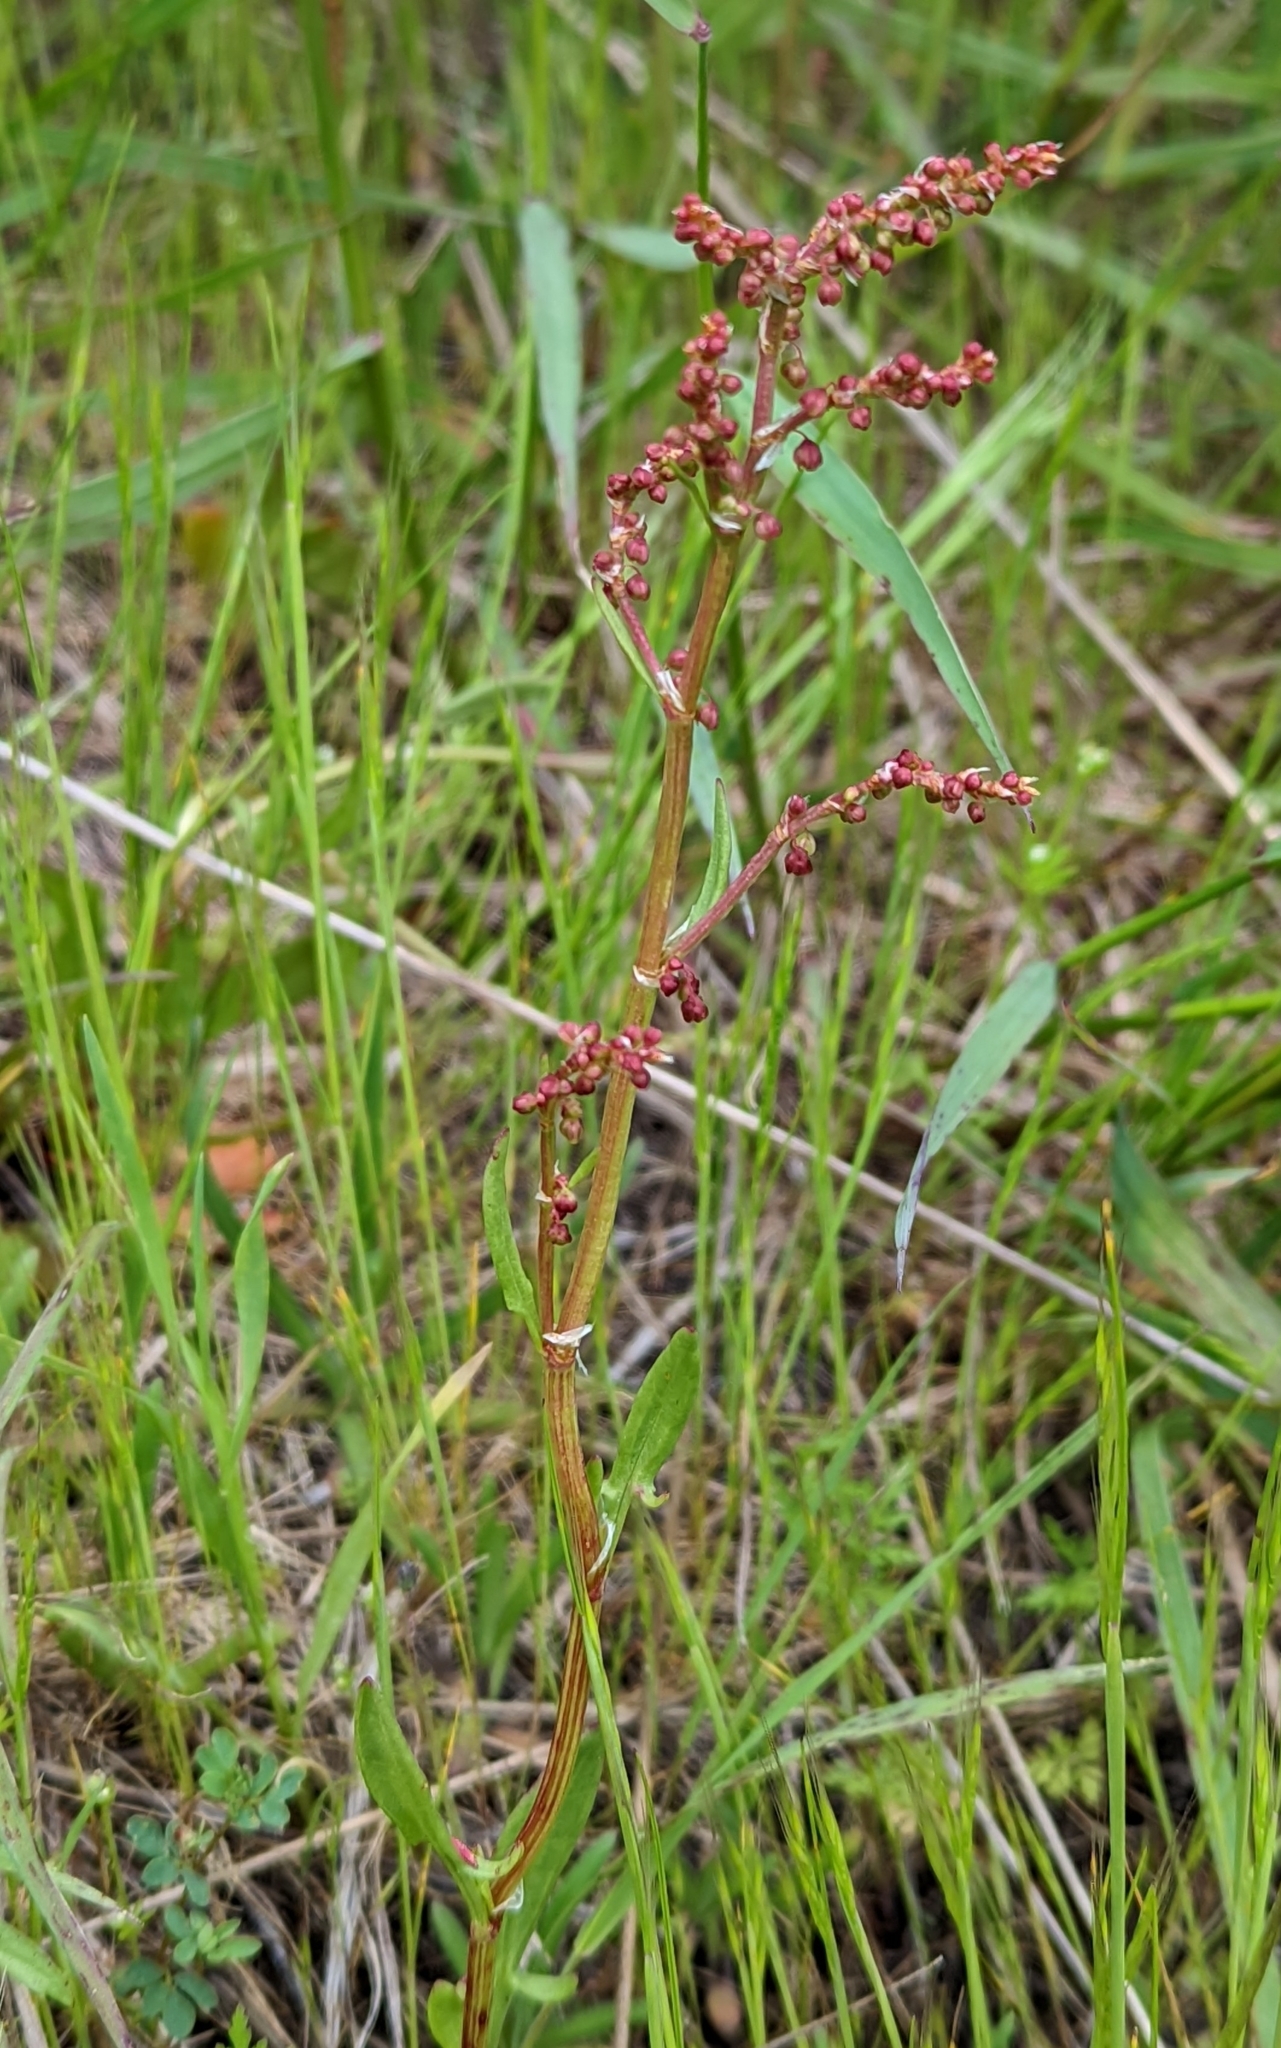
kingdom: Plantae
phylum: Tracheophyta
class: Magnoliopsida
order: Caryophyllales
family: Polygonaceae
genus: Rumex
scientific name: Rumex acetosella
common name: Common sheep sorrel
